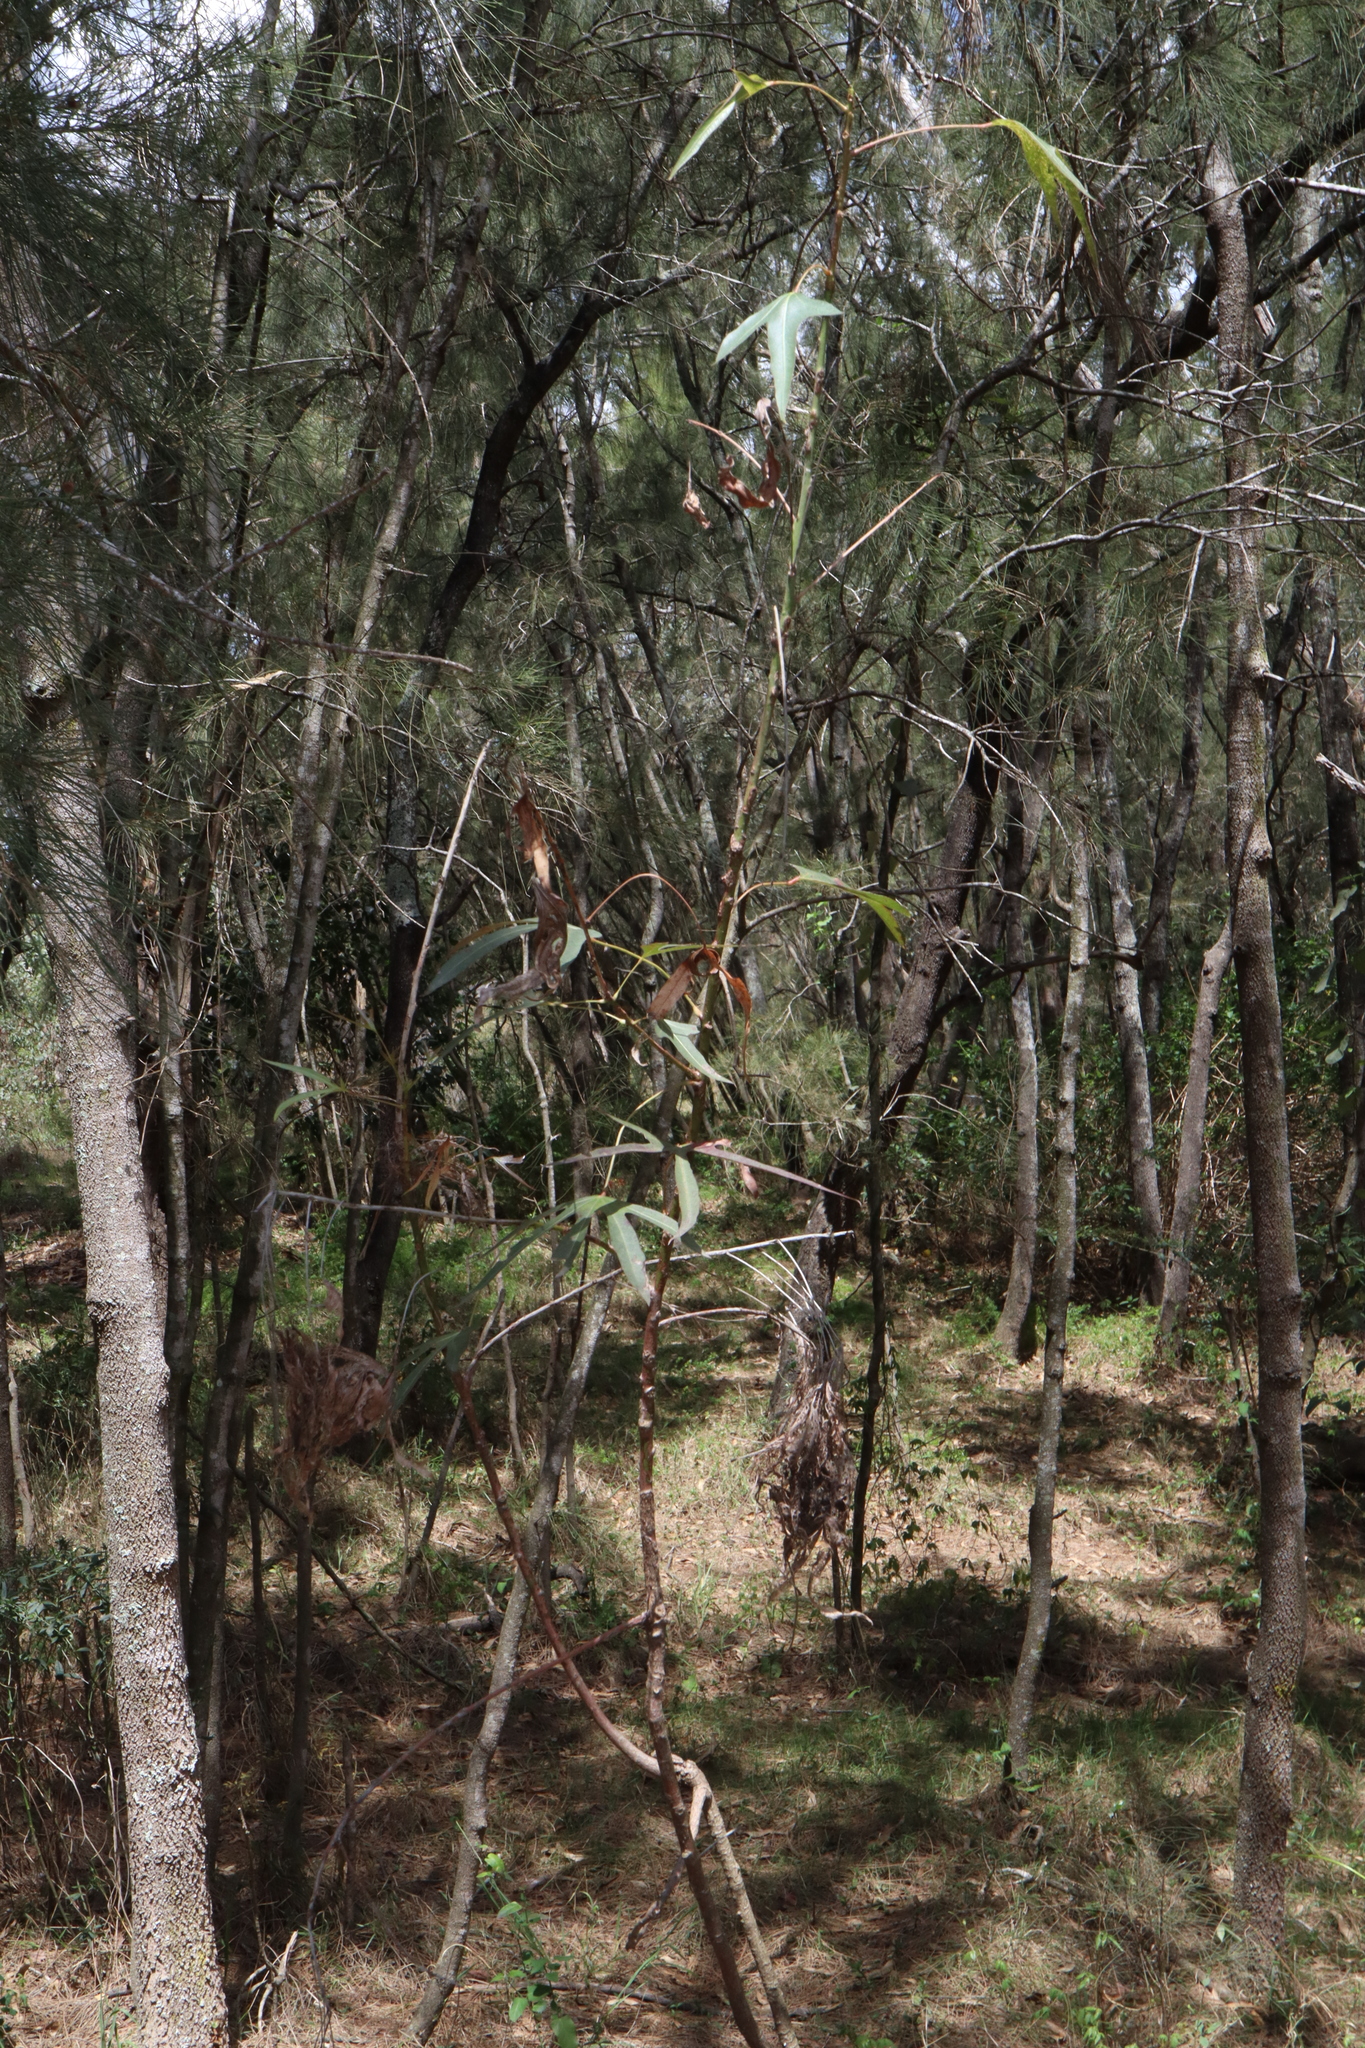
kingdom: Plantae
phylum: Tracheophyta
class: Magnoliopsida
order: Malvales
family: Malvaceae
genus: Brachychiton
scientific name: Brachychiton populneus
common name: Kurrajong
